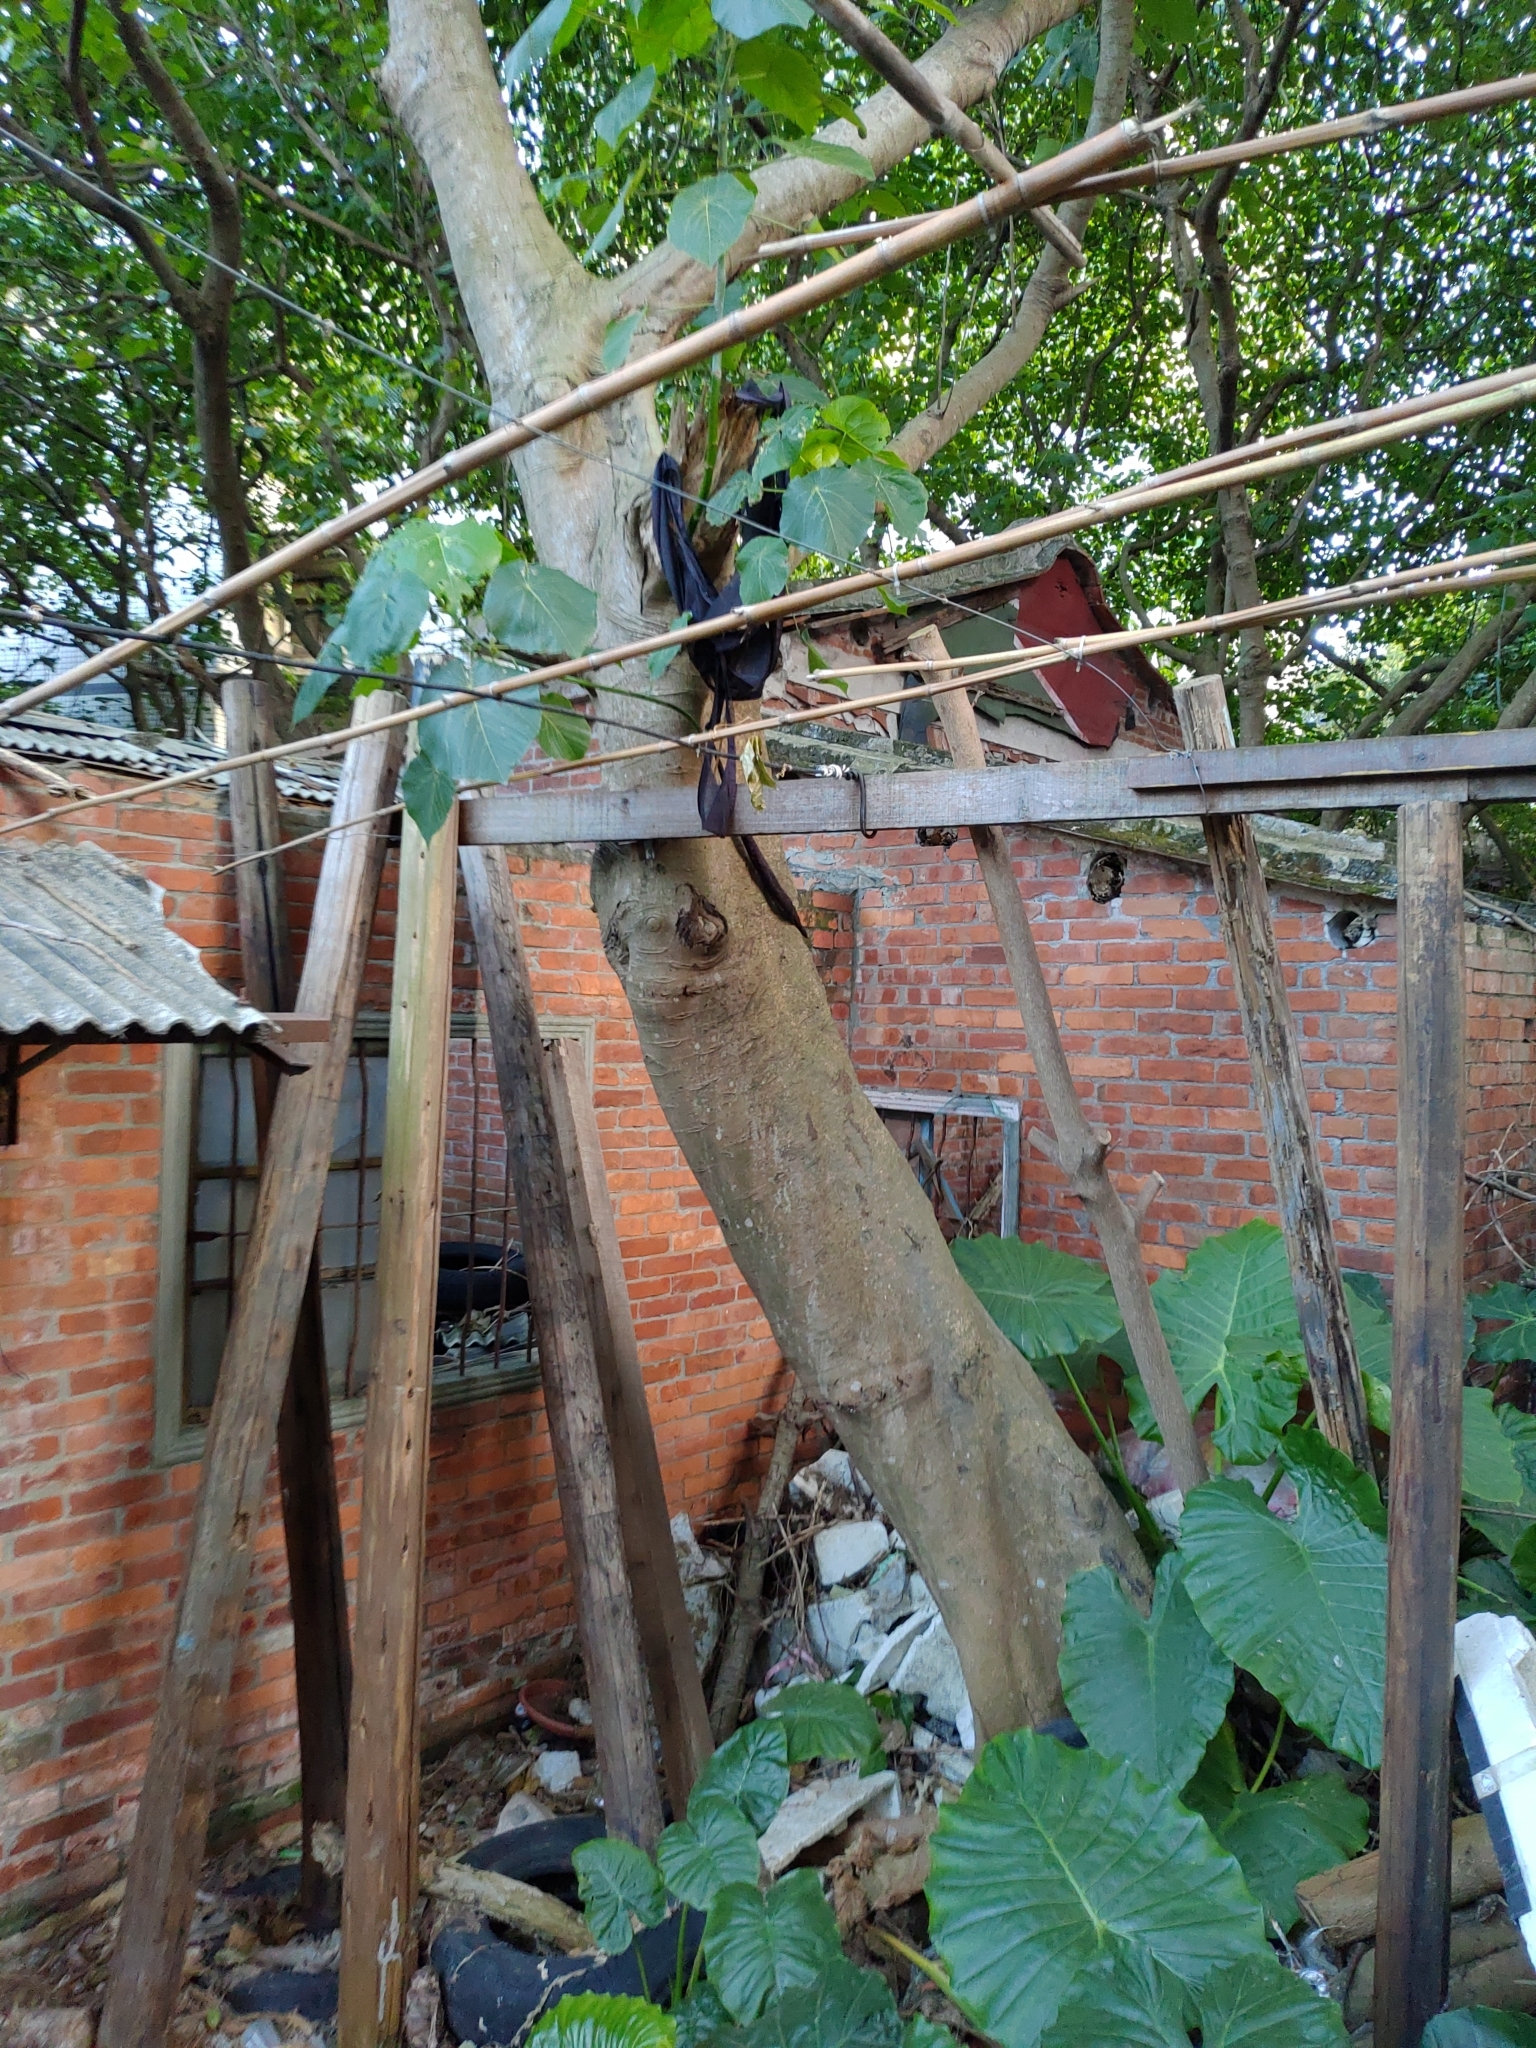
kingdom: Plantae
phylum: Tracheophyta
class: Magnoliopsida
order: Malpighiales
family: Euphorbiaceae
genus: Macaranga
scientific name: Macaranga tanarius
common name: Parasol leaf tree
